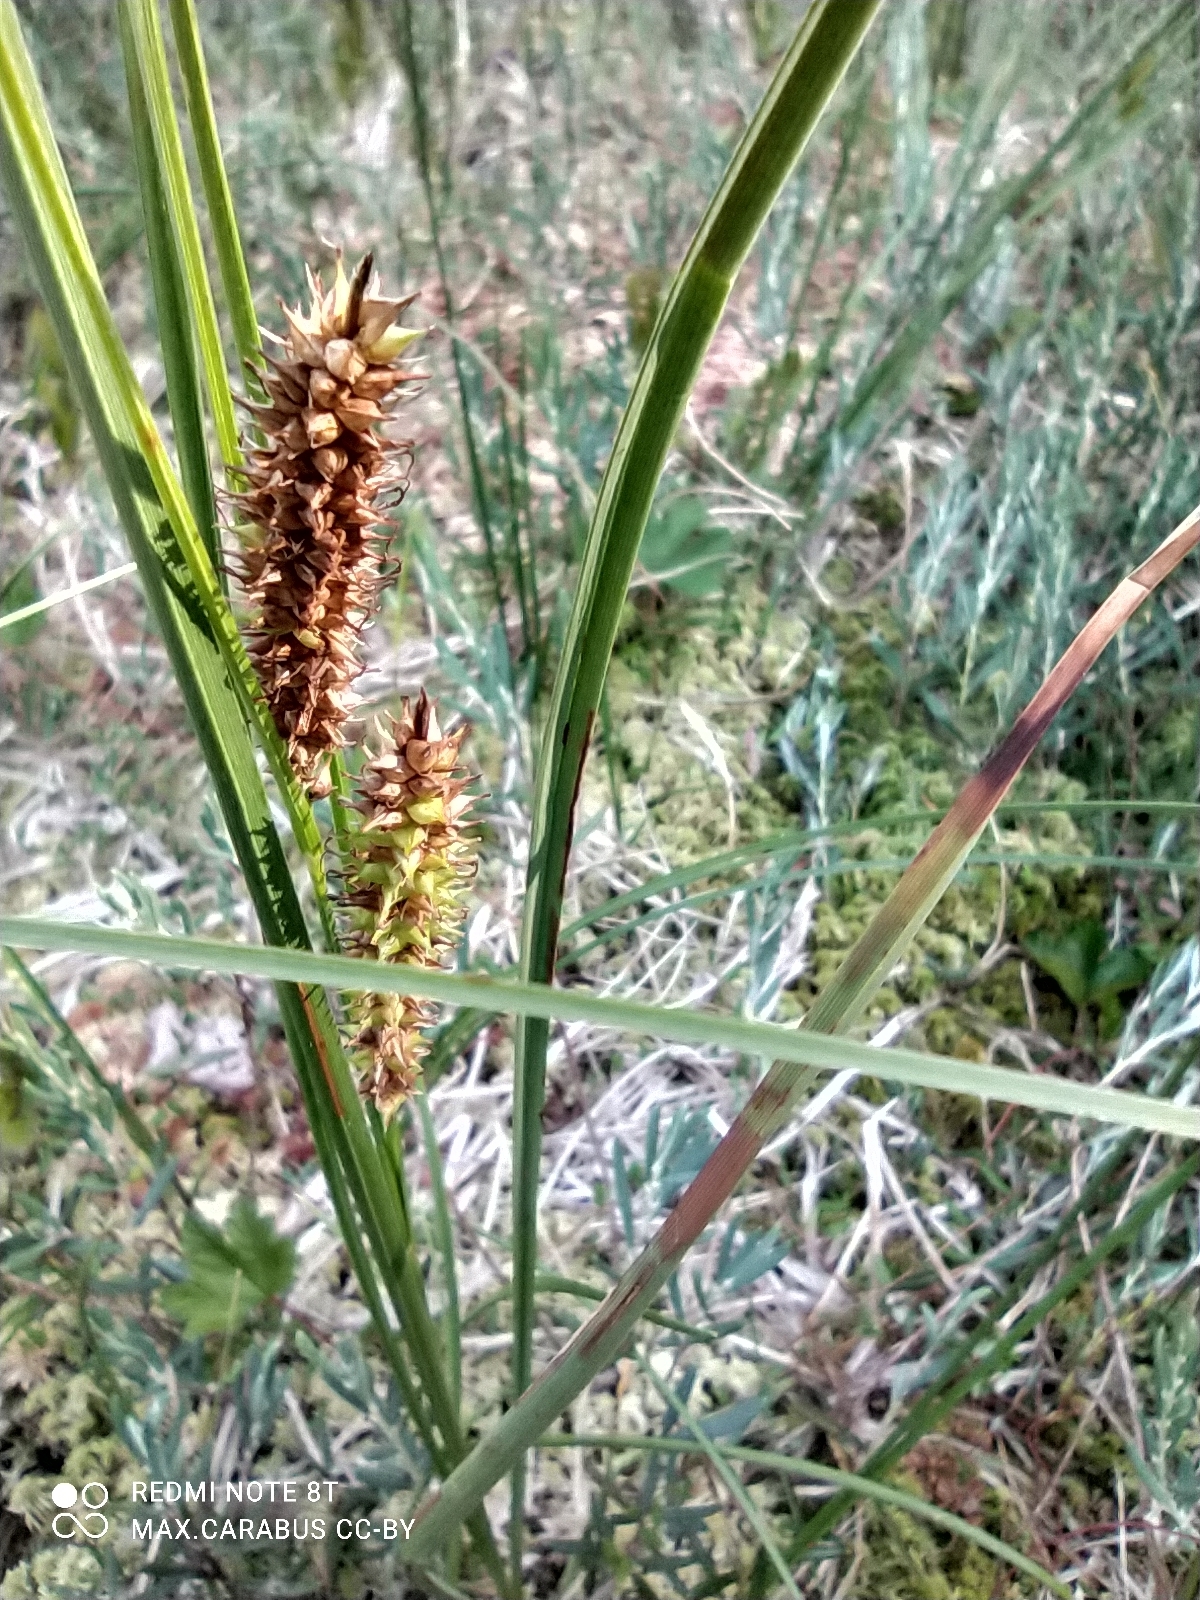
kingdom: Plantae
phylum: Tracheophyta
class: Liliopsida
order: Poales
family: Cyperaceae
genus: Carex
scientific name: Carex rostrata
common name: Bottle sedge
